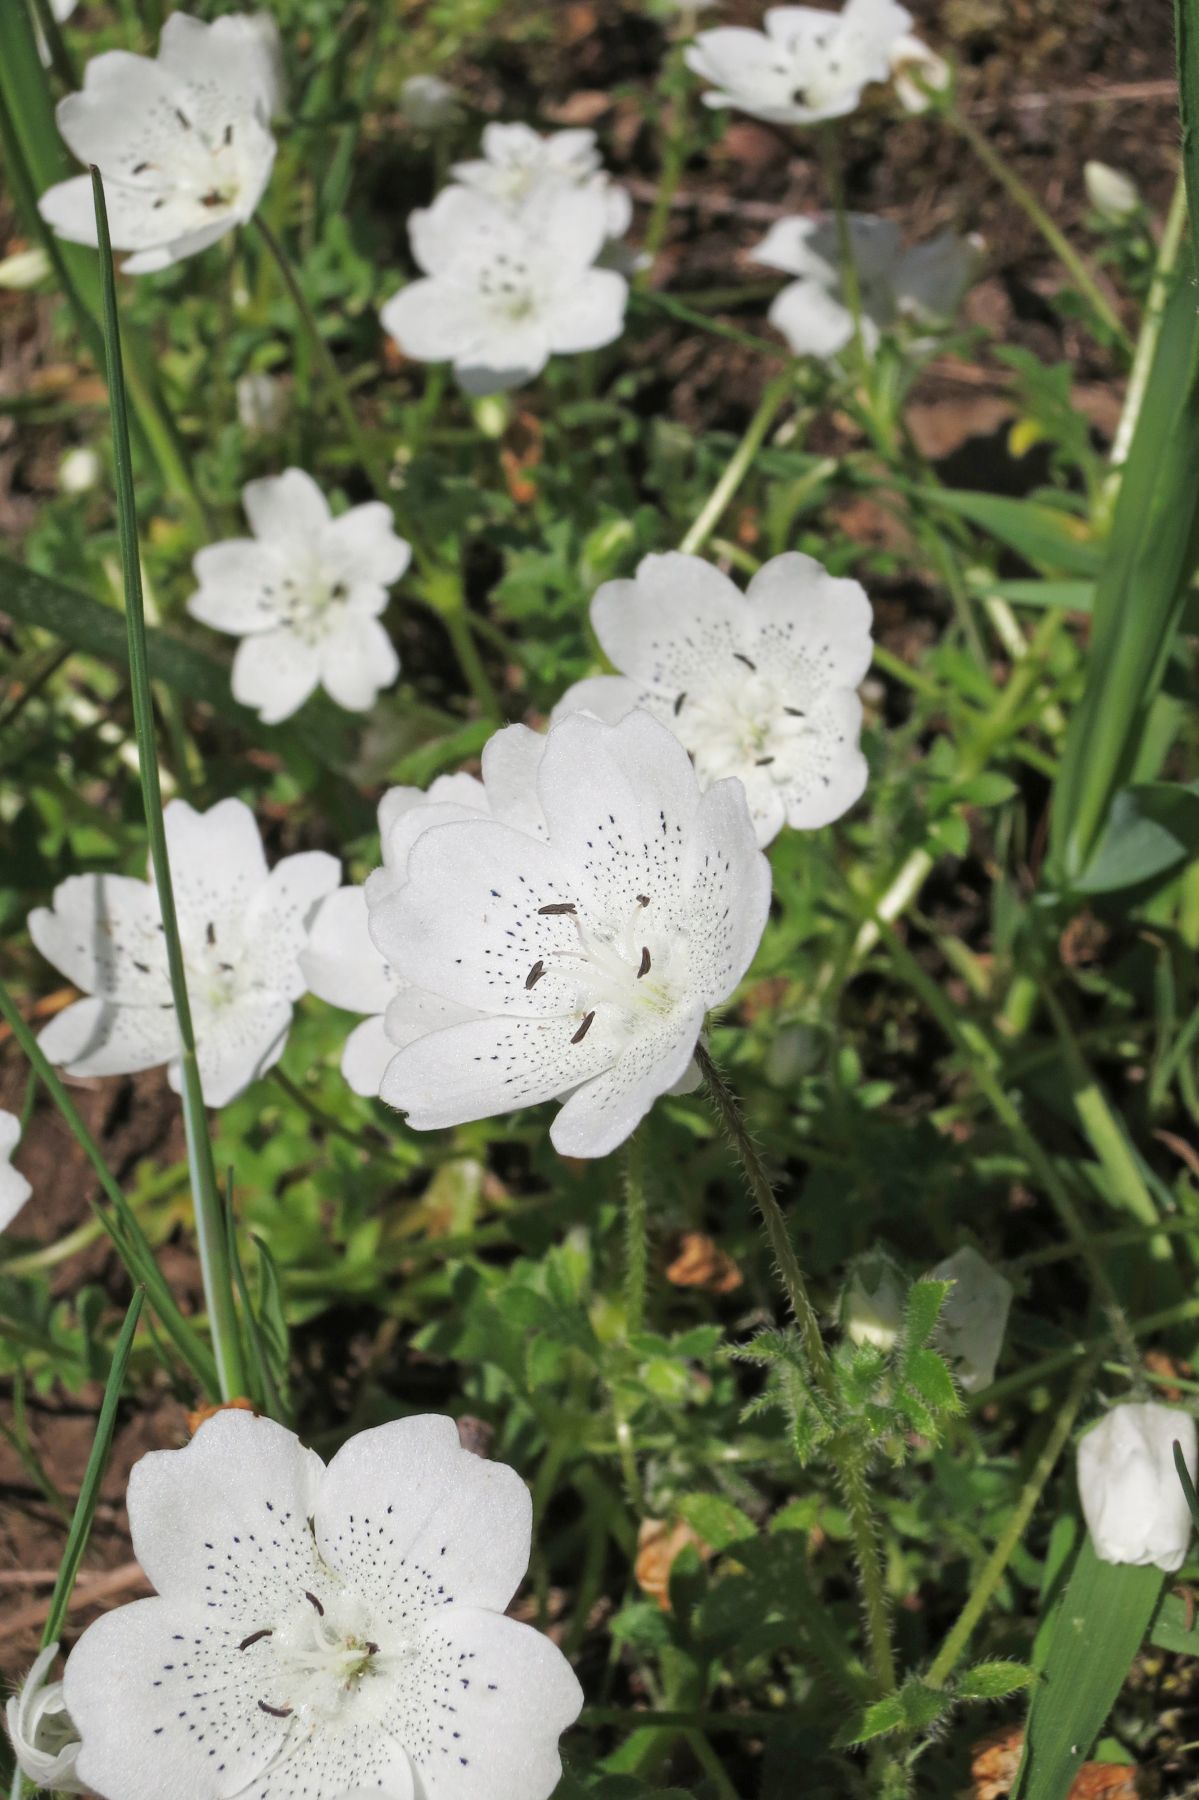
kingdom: Plantae
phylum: Tracheophyta
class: Magnoliopsida
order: Boraginales
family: Hydrophyllaceae
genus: Nemophila
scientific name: Nemophila menziesii
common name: Baby's-blue-eyes
